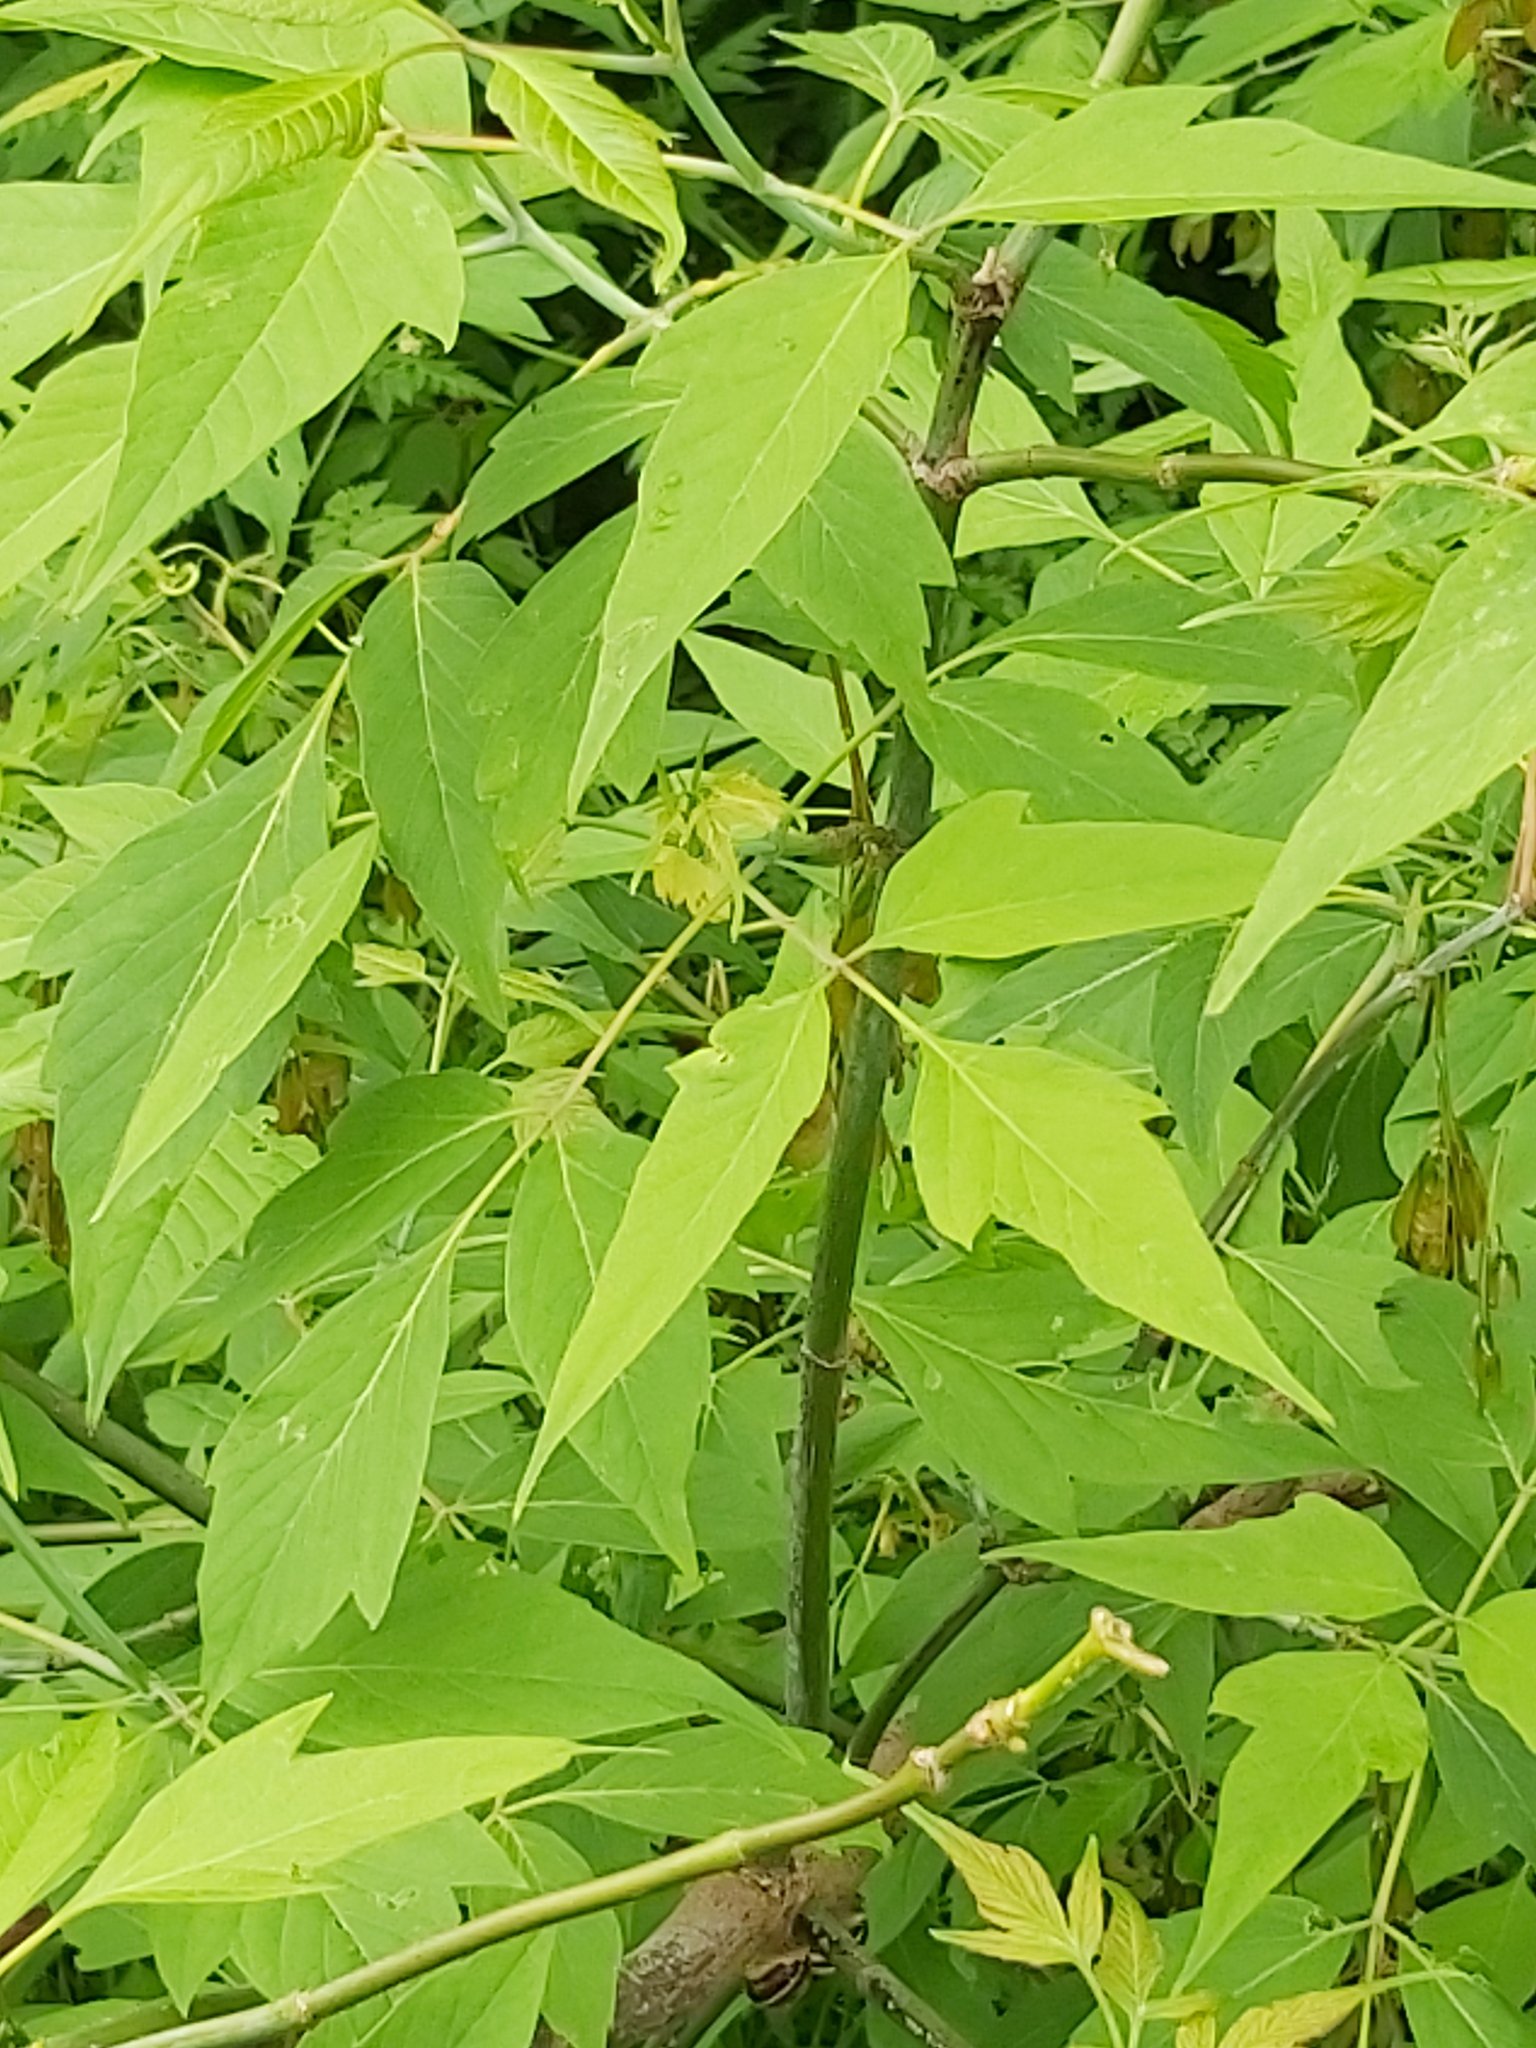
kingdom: Plantae
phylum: Tracheophyta
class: Magnoliopsida
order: Sapindales
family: Sapindaceae
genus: Acer
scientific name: Acer negundo
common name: Ashleaf maple
